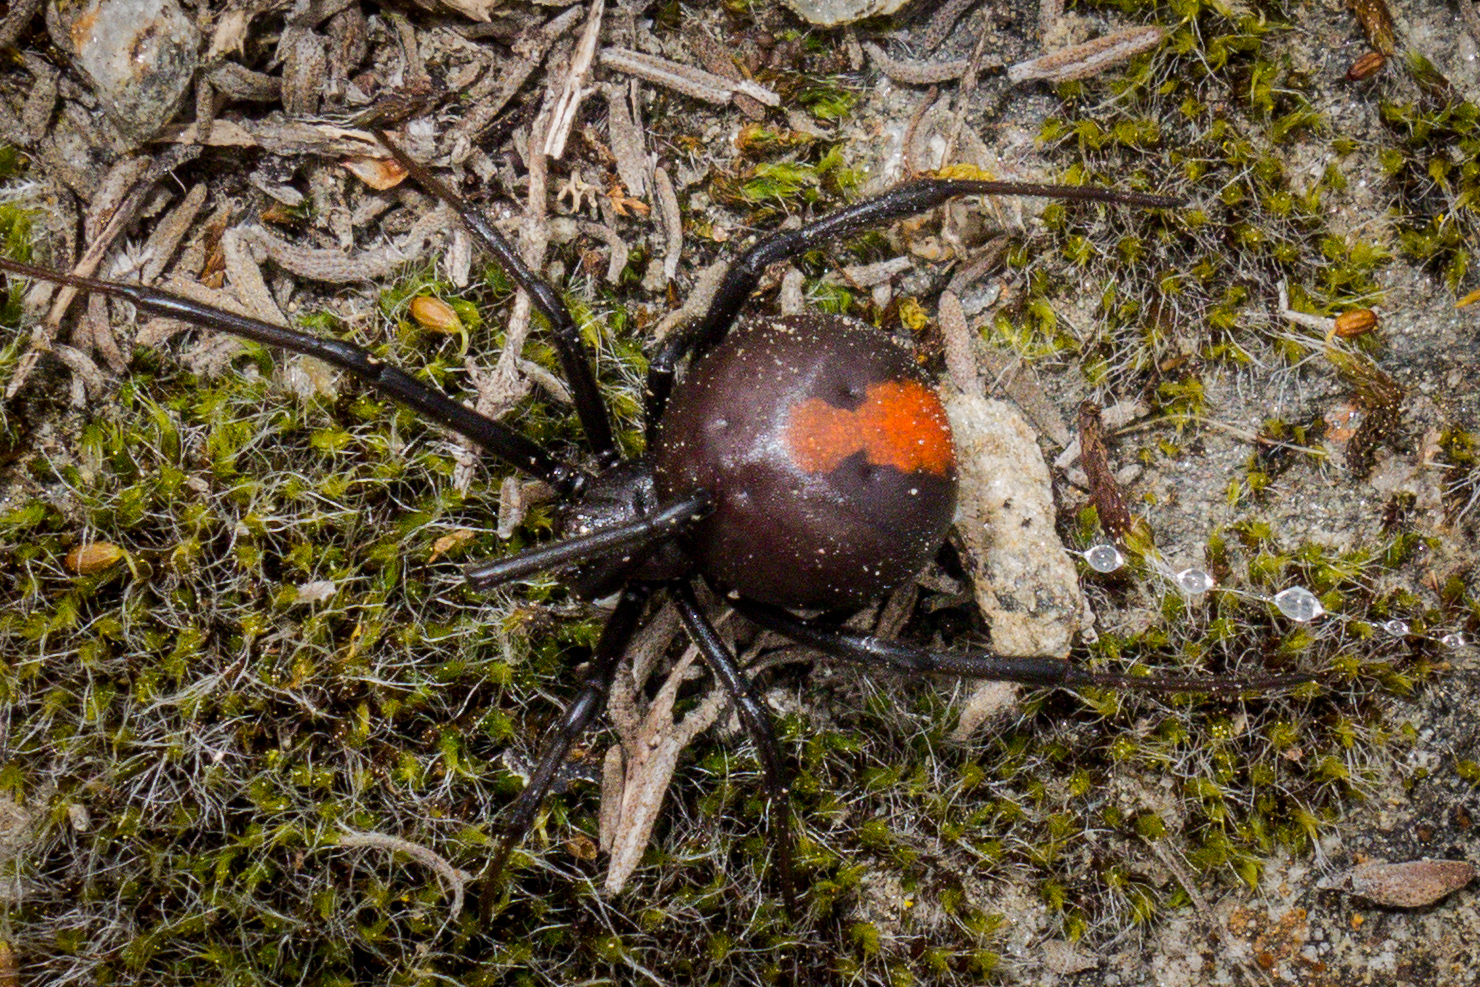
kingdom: Animalia
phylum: Arthropoda
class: Arachnida
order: Araneae
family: Theridiidae
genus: Latrodectus
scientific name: Latrodectus hasselti
